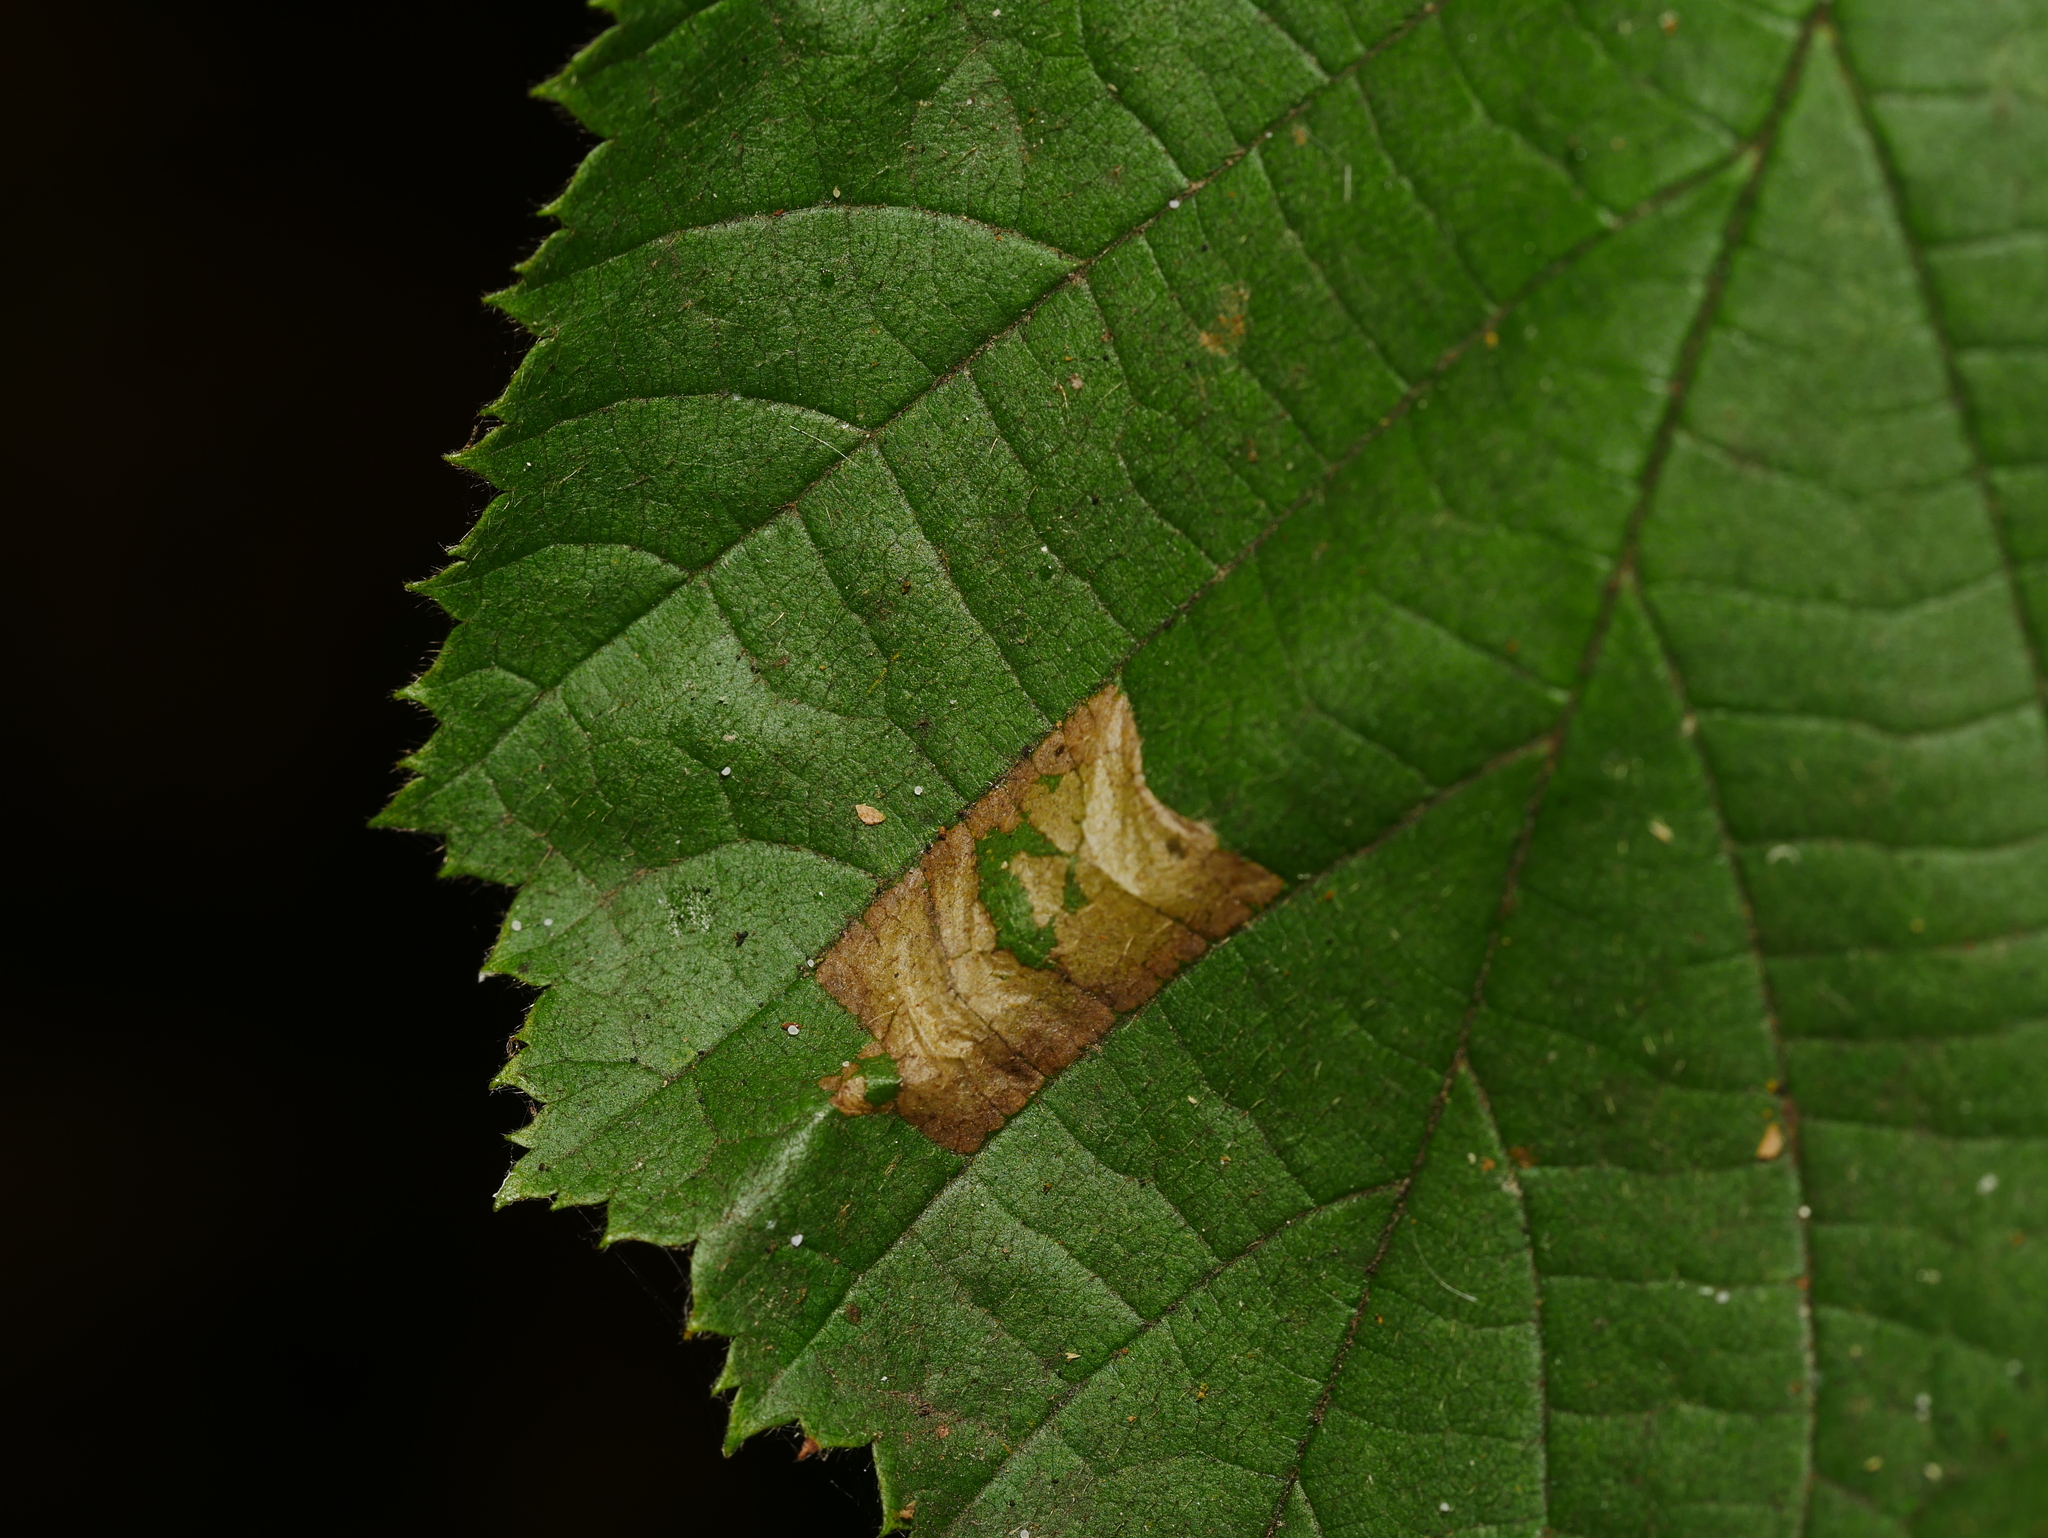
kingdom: Animalia
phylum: Arthropoda
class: Insecta
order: Lepidoptera
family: Gracillariidae
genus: Phyllonorycter
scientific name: Phyllonorycter nicellii
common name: Red hazel midget
